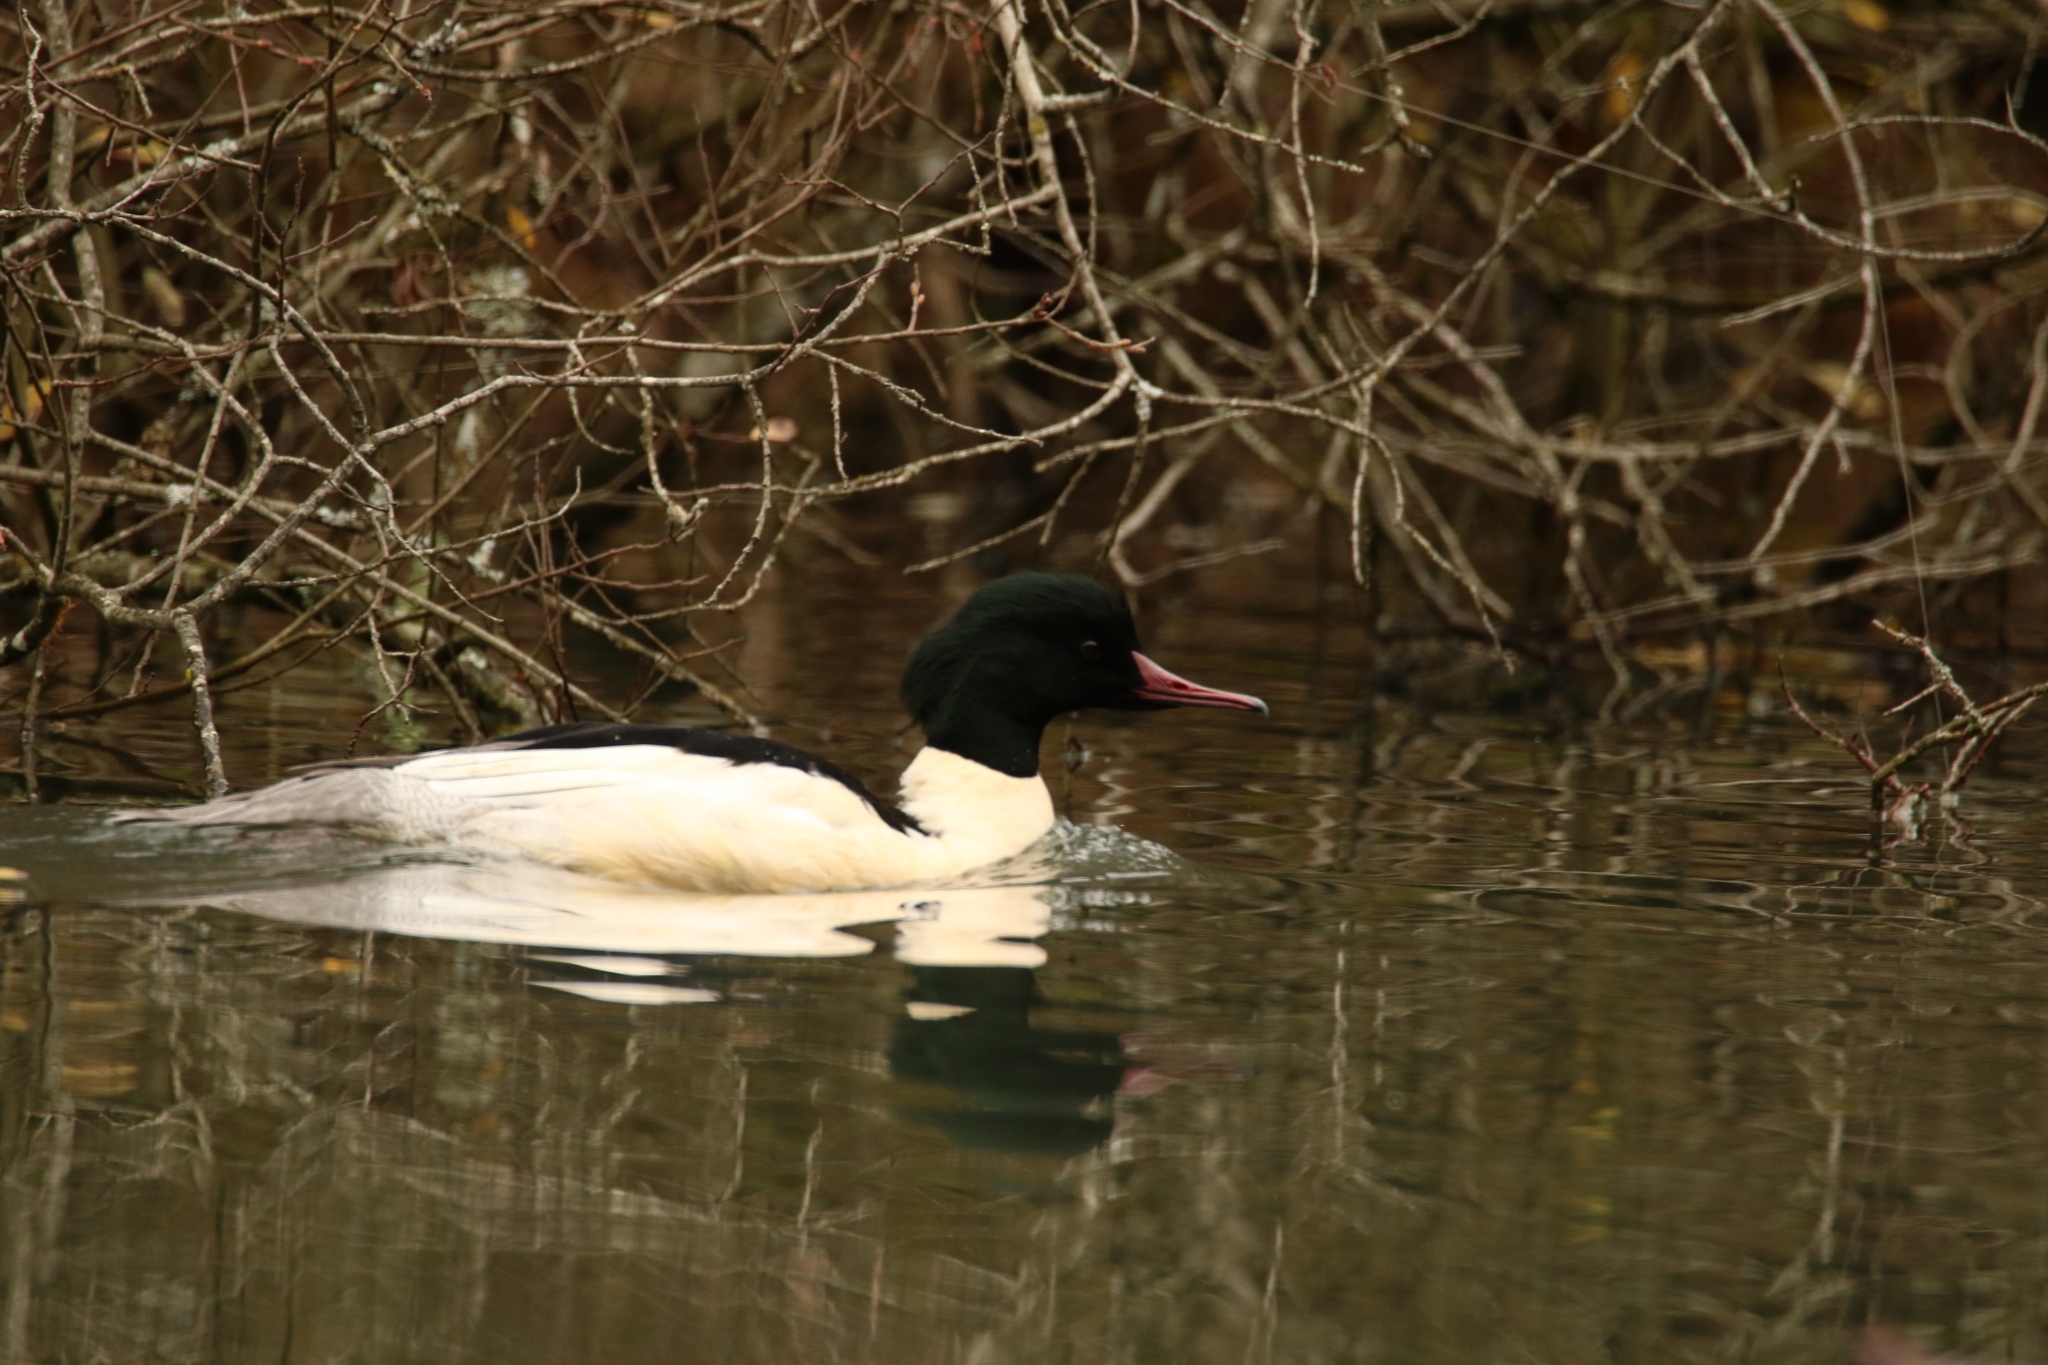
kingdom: Animalia
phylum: Chordata
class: Aves
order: Anseriformes
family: Anatidae
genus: Mergus
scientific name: Mergus merganser
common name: Common merganser
